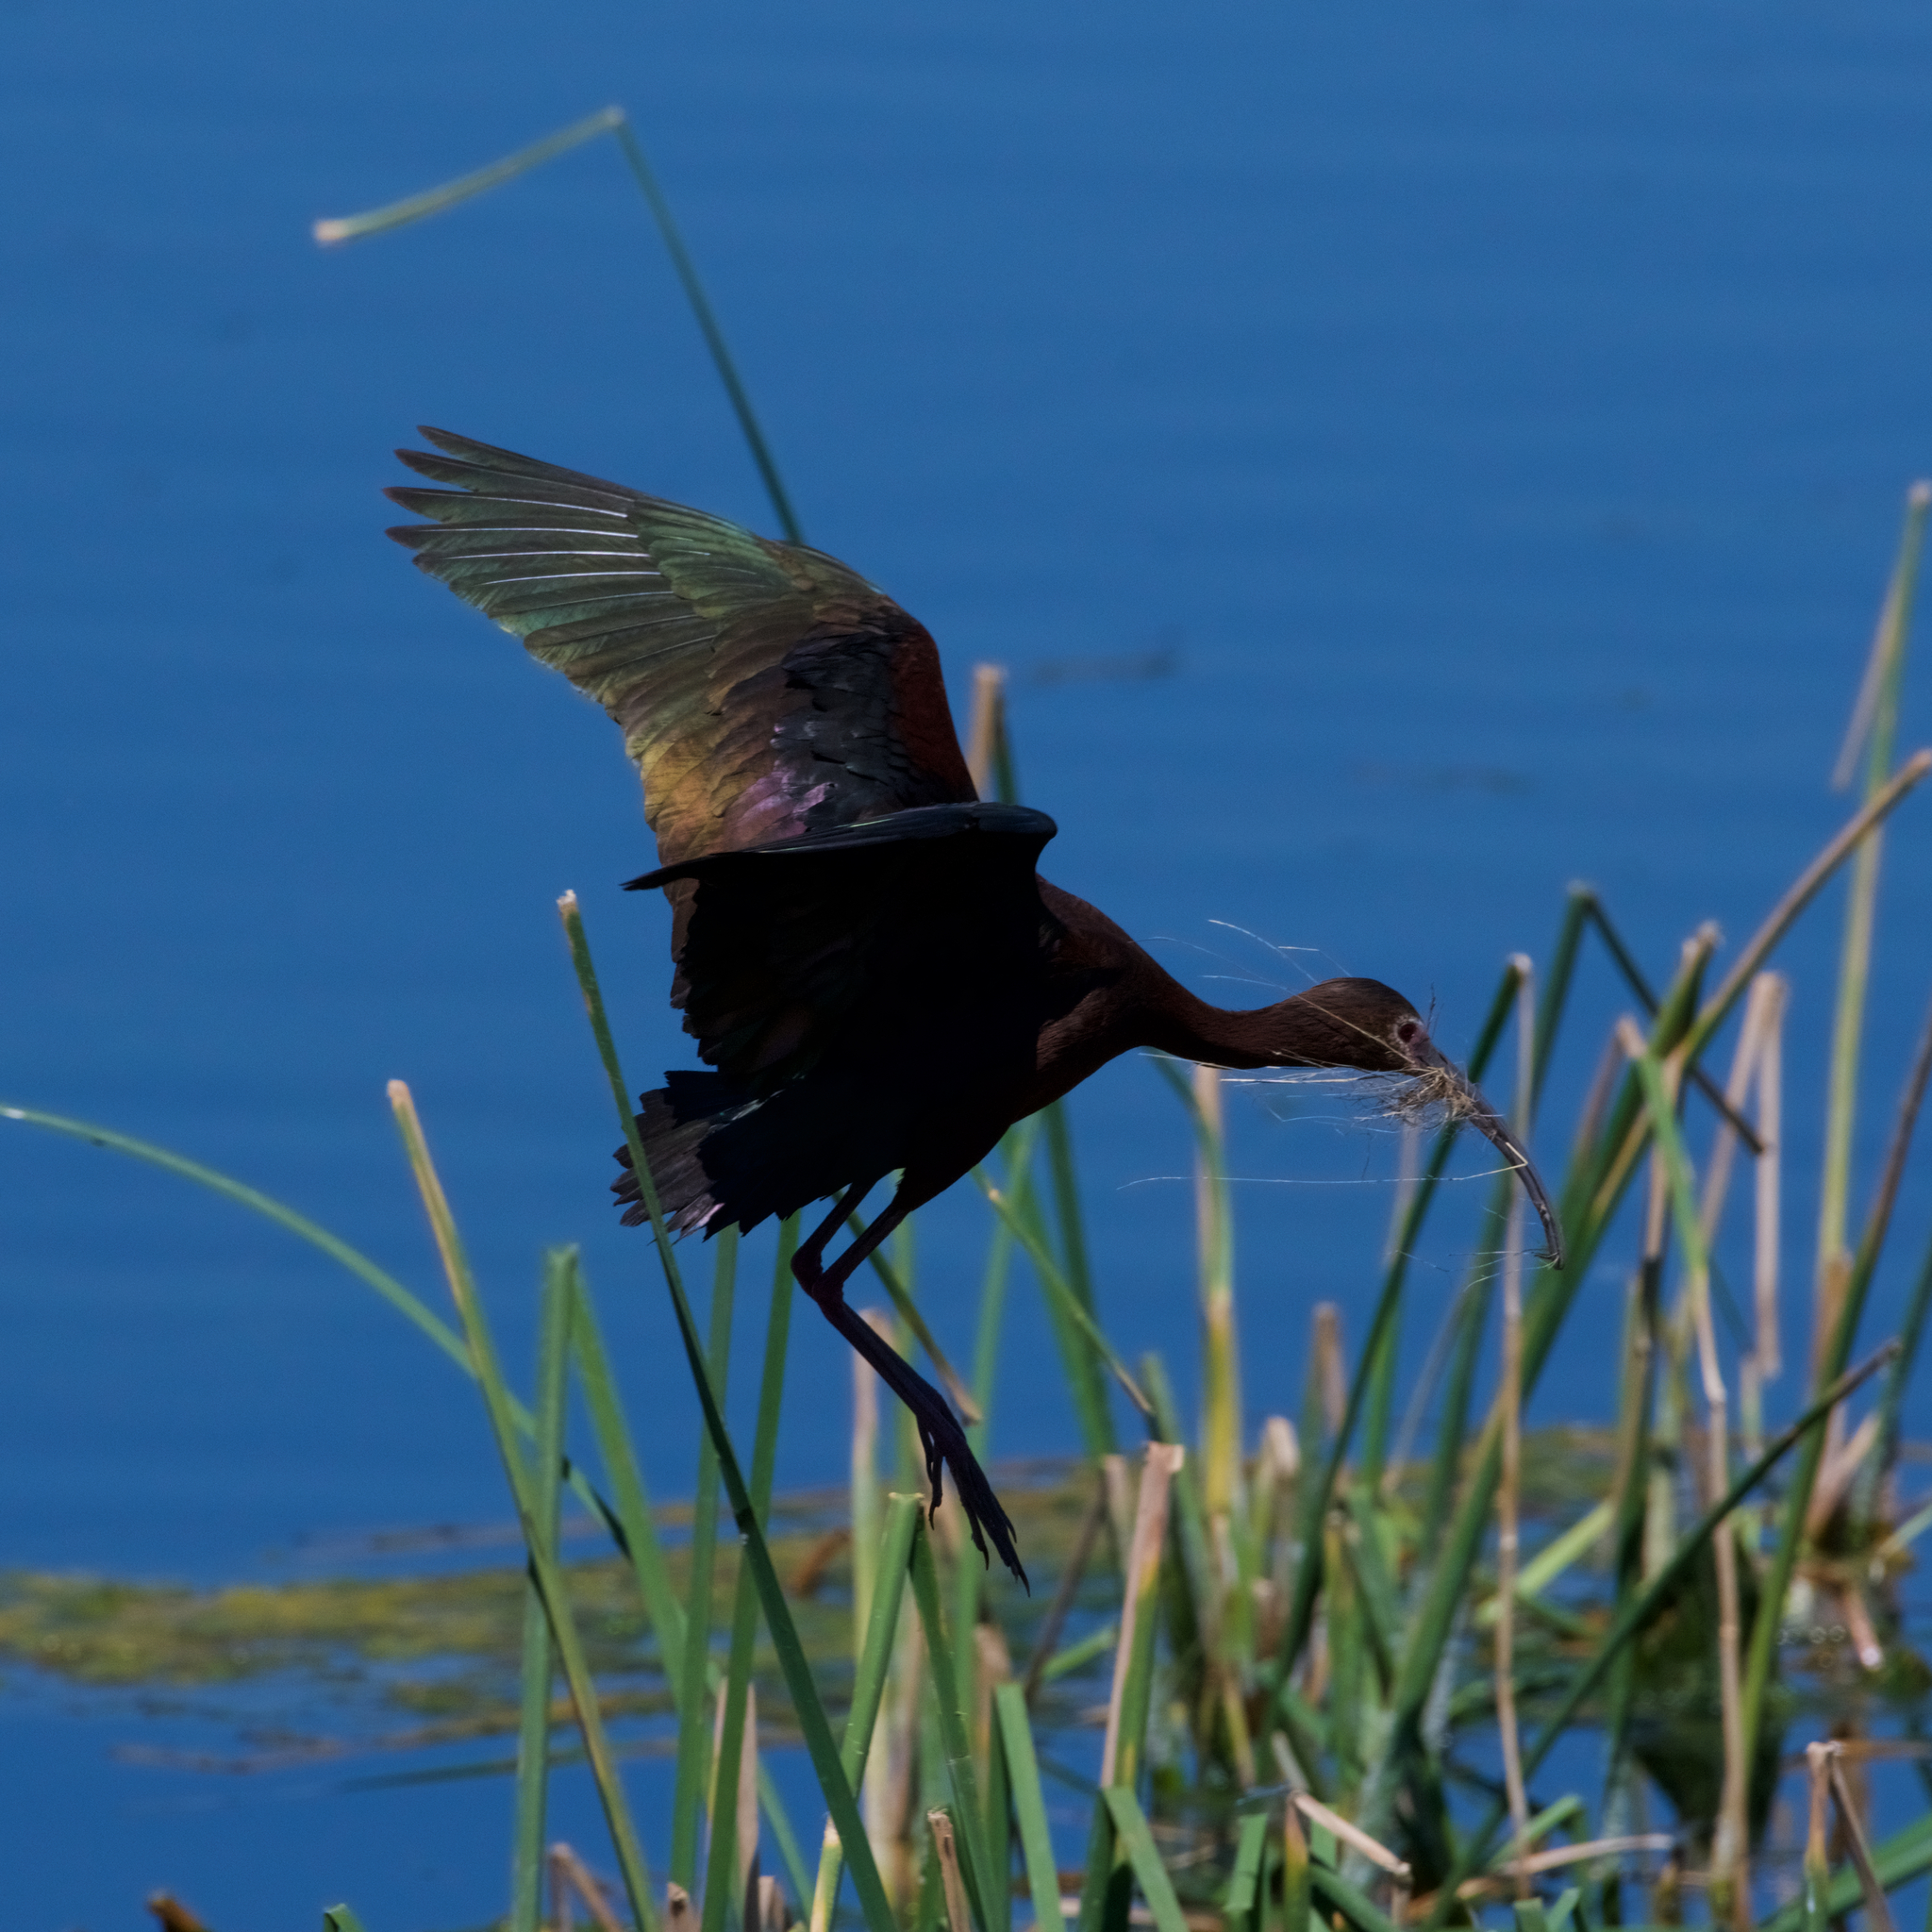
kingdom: Animalia
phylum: Chordata
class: Aves
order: Pelecaniformes
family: Threskiornithidae
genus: Plegadis
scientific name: Plegadis chihi
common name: White-faced ibis
